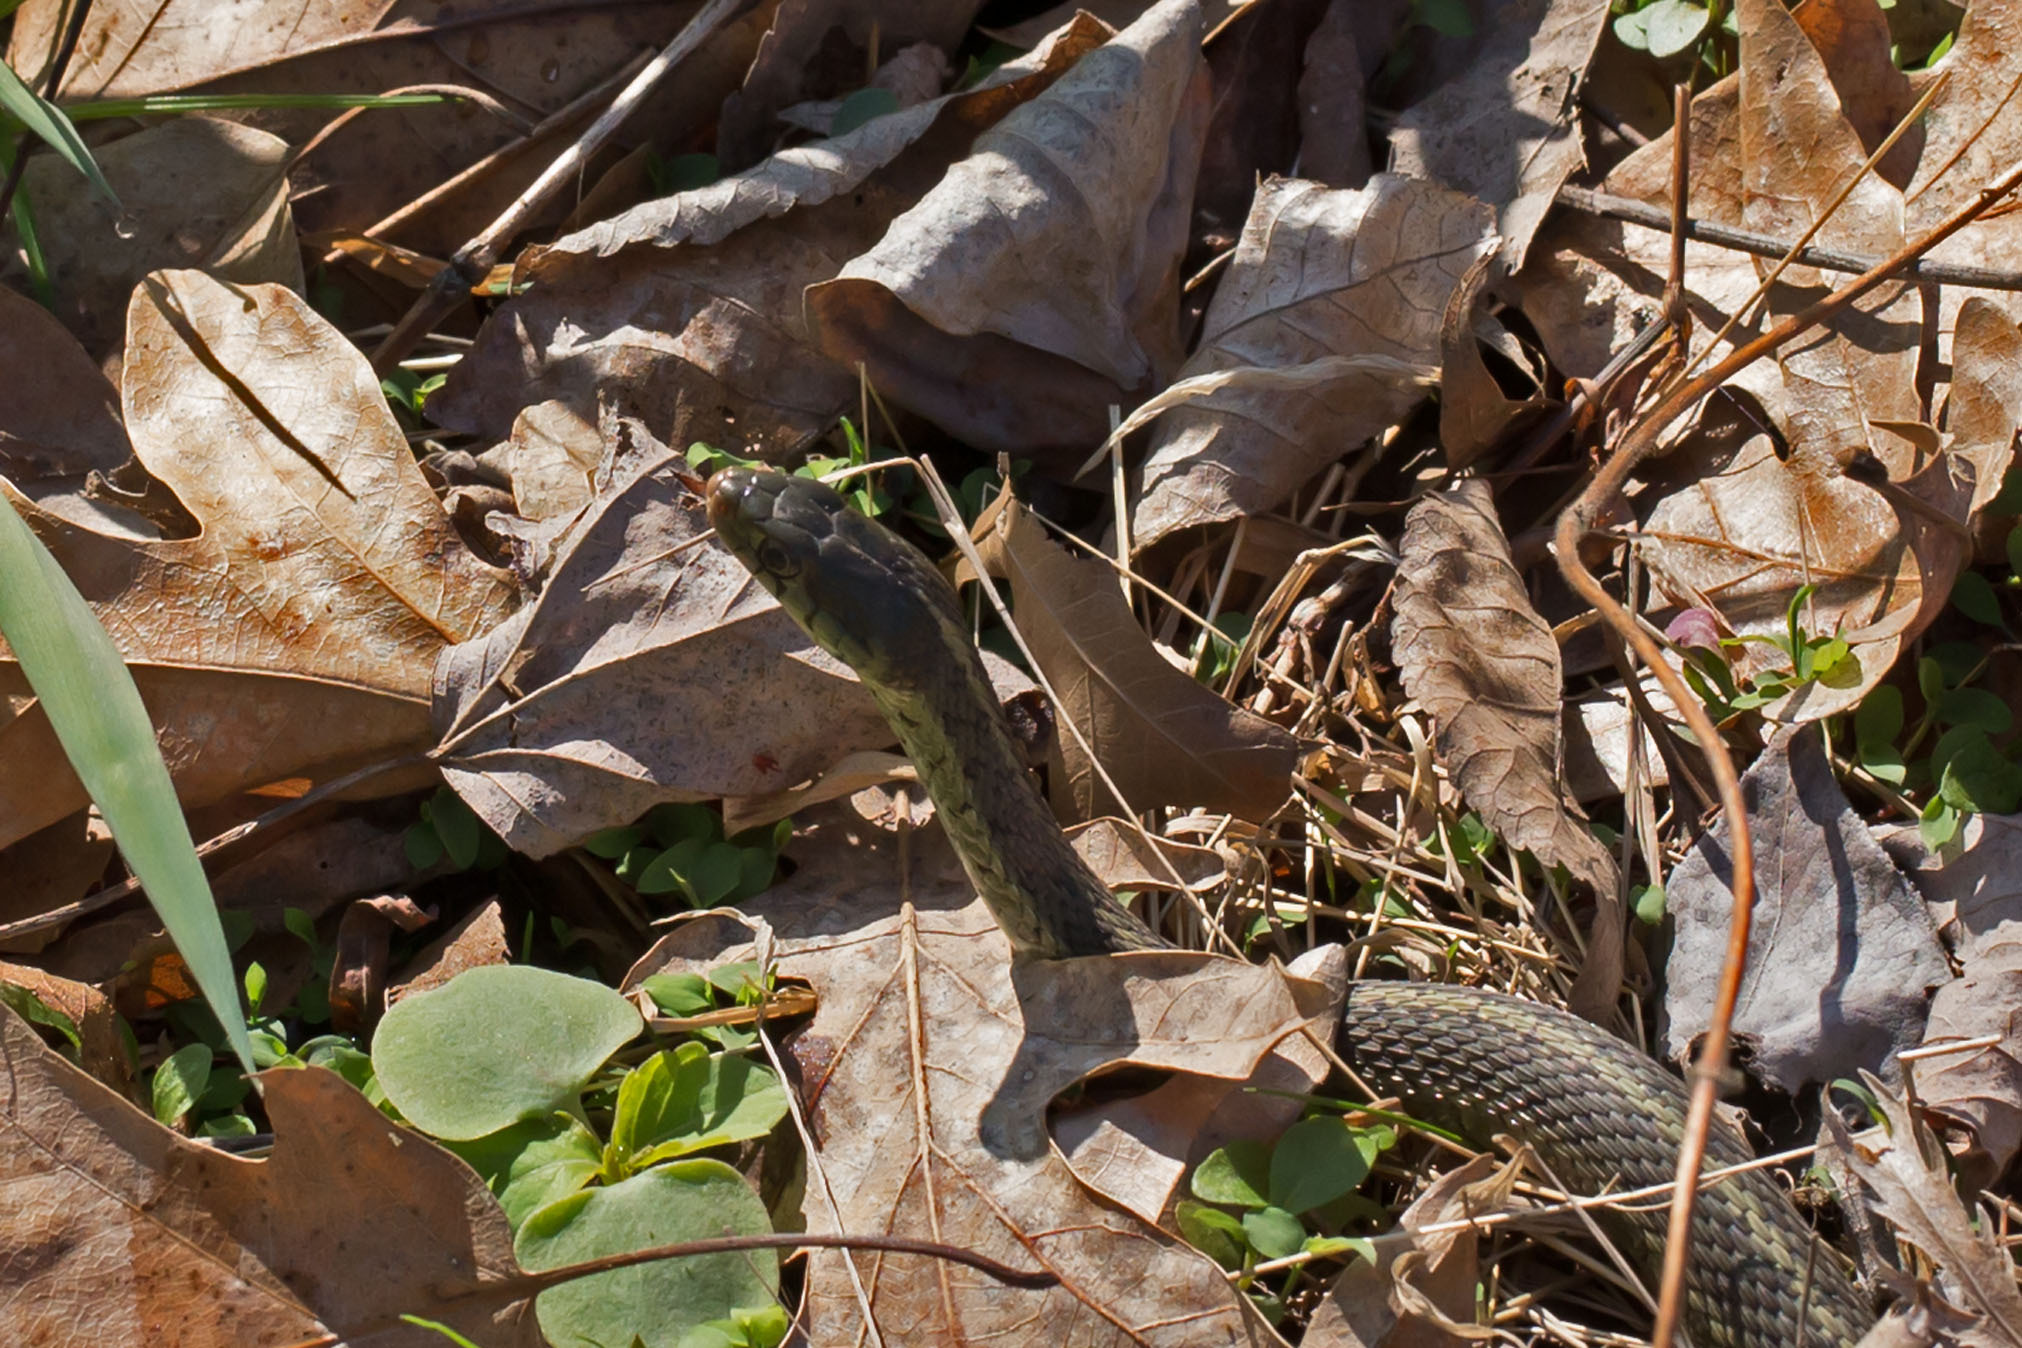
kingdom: Animalia
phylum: Chordata
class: Squamata
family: Colubridae
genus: Thamnophis
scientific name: Thamnophis sirtalis
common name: Common garter snake
